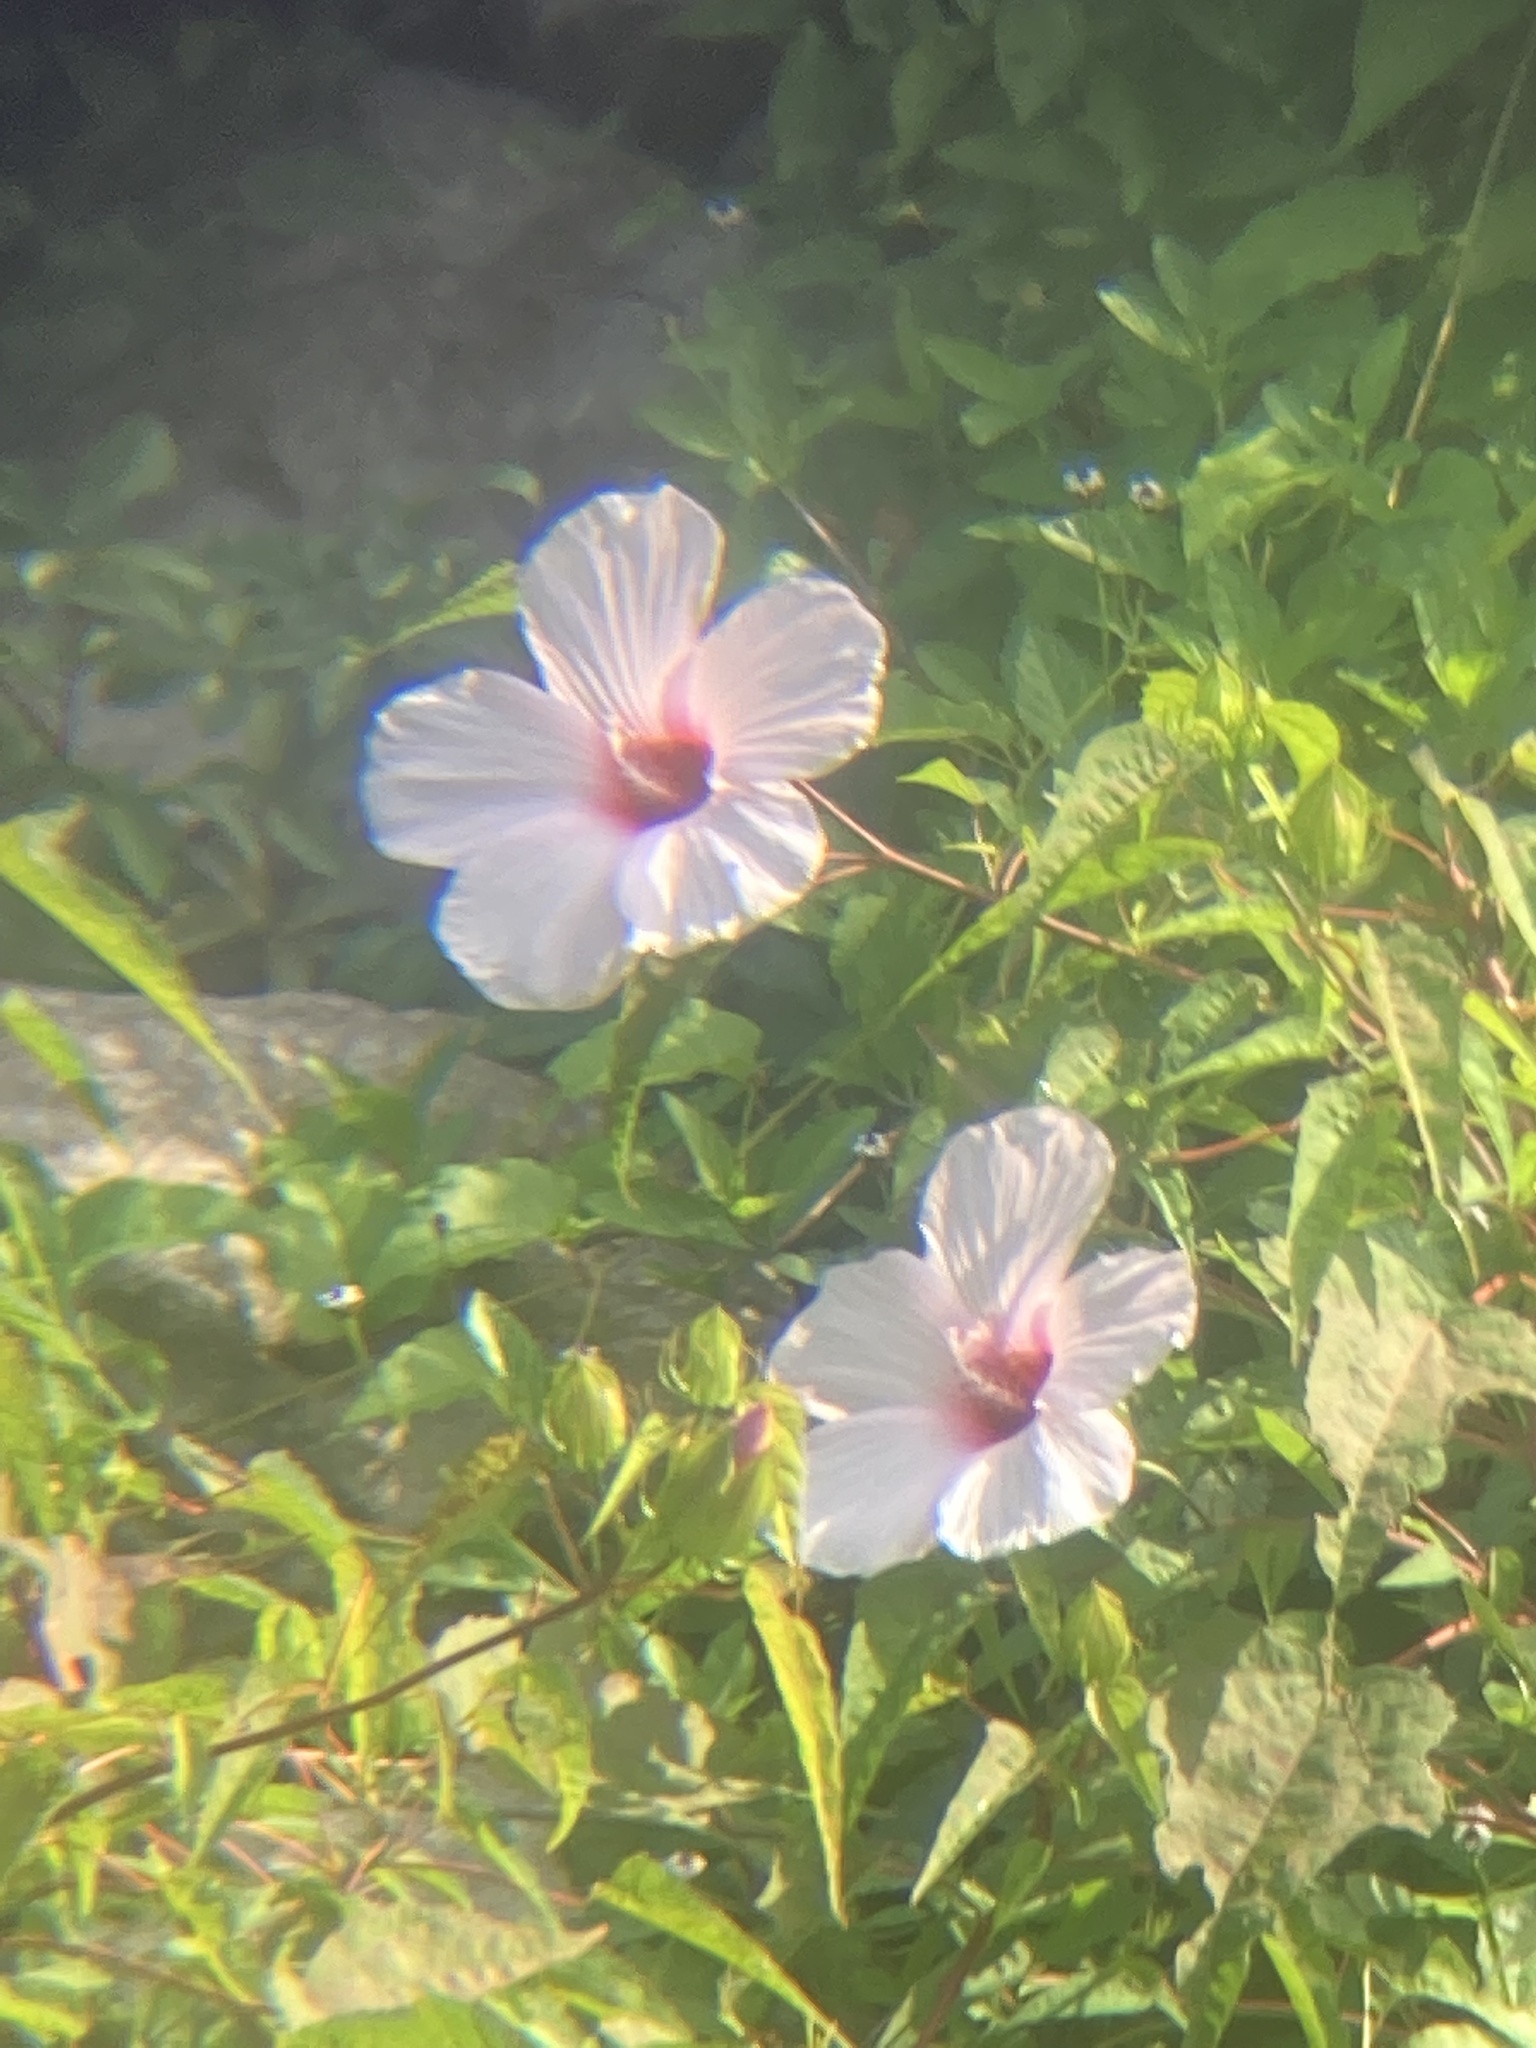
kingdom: Plantae
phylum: Tracheophyta
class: Magnoliopsida
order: Malvales
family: Malvaceae
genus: Hibiscus
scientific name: Hibiscus laevis
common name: Scarlet rose-mallow
